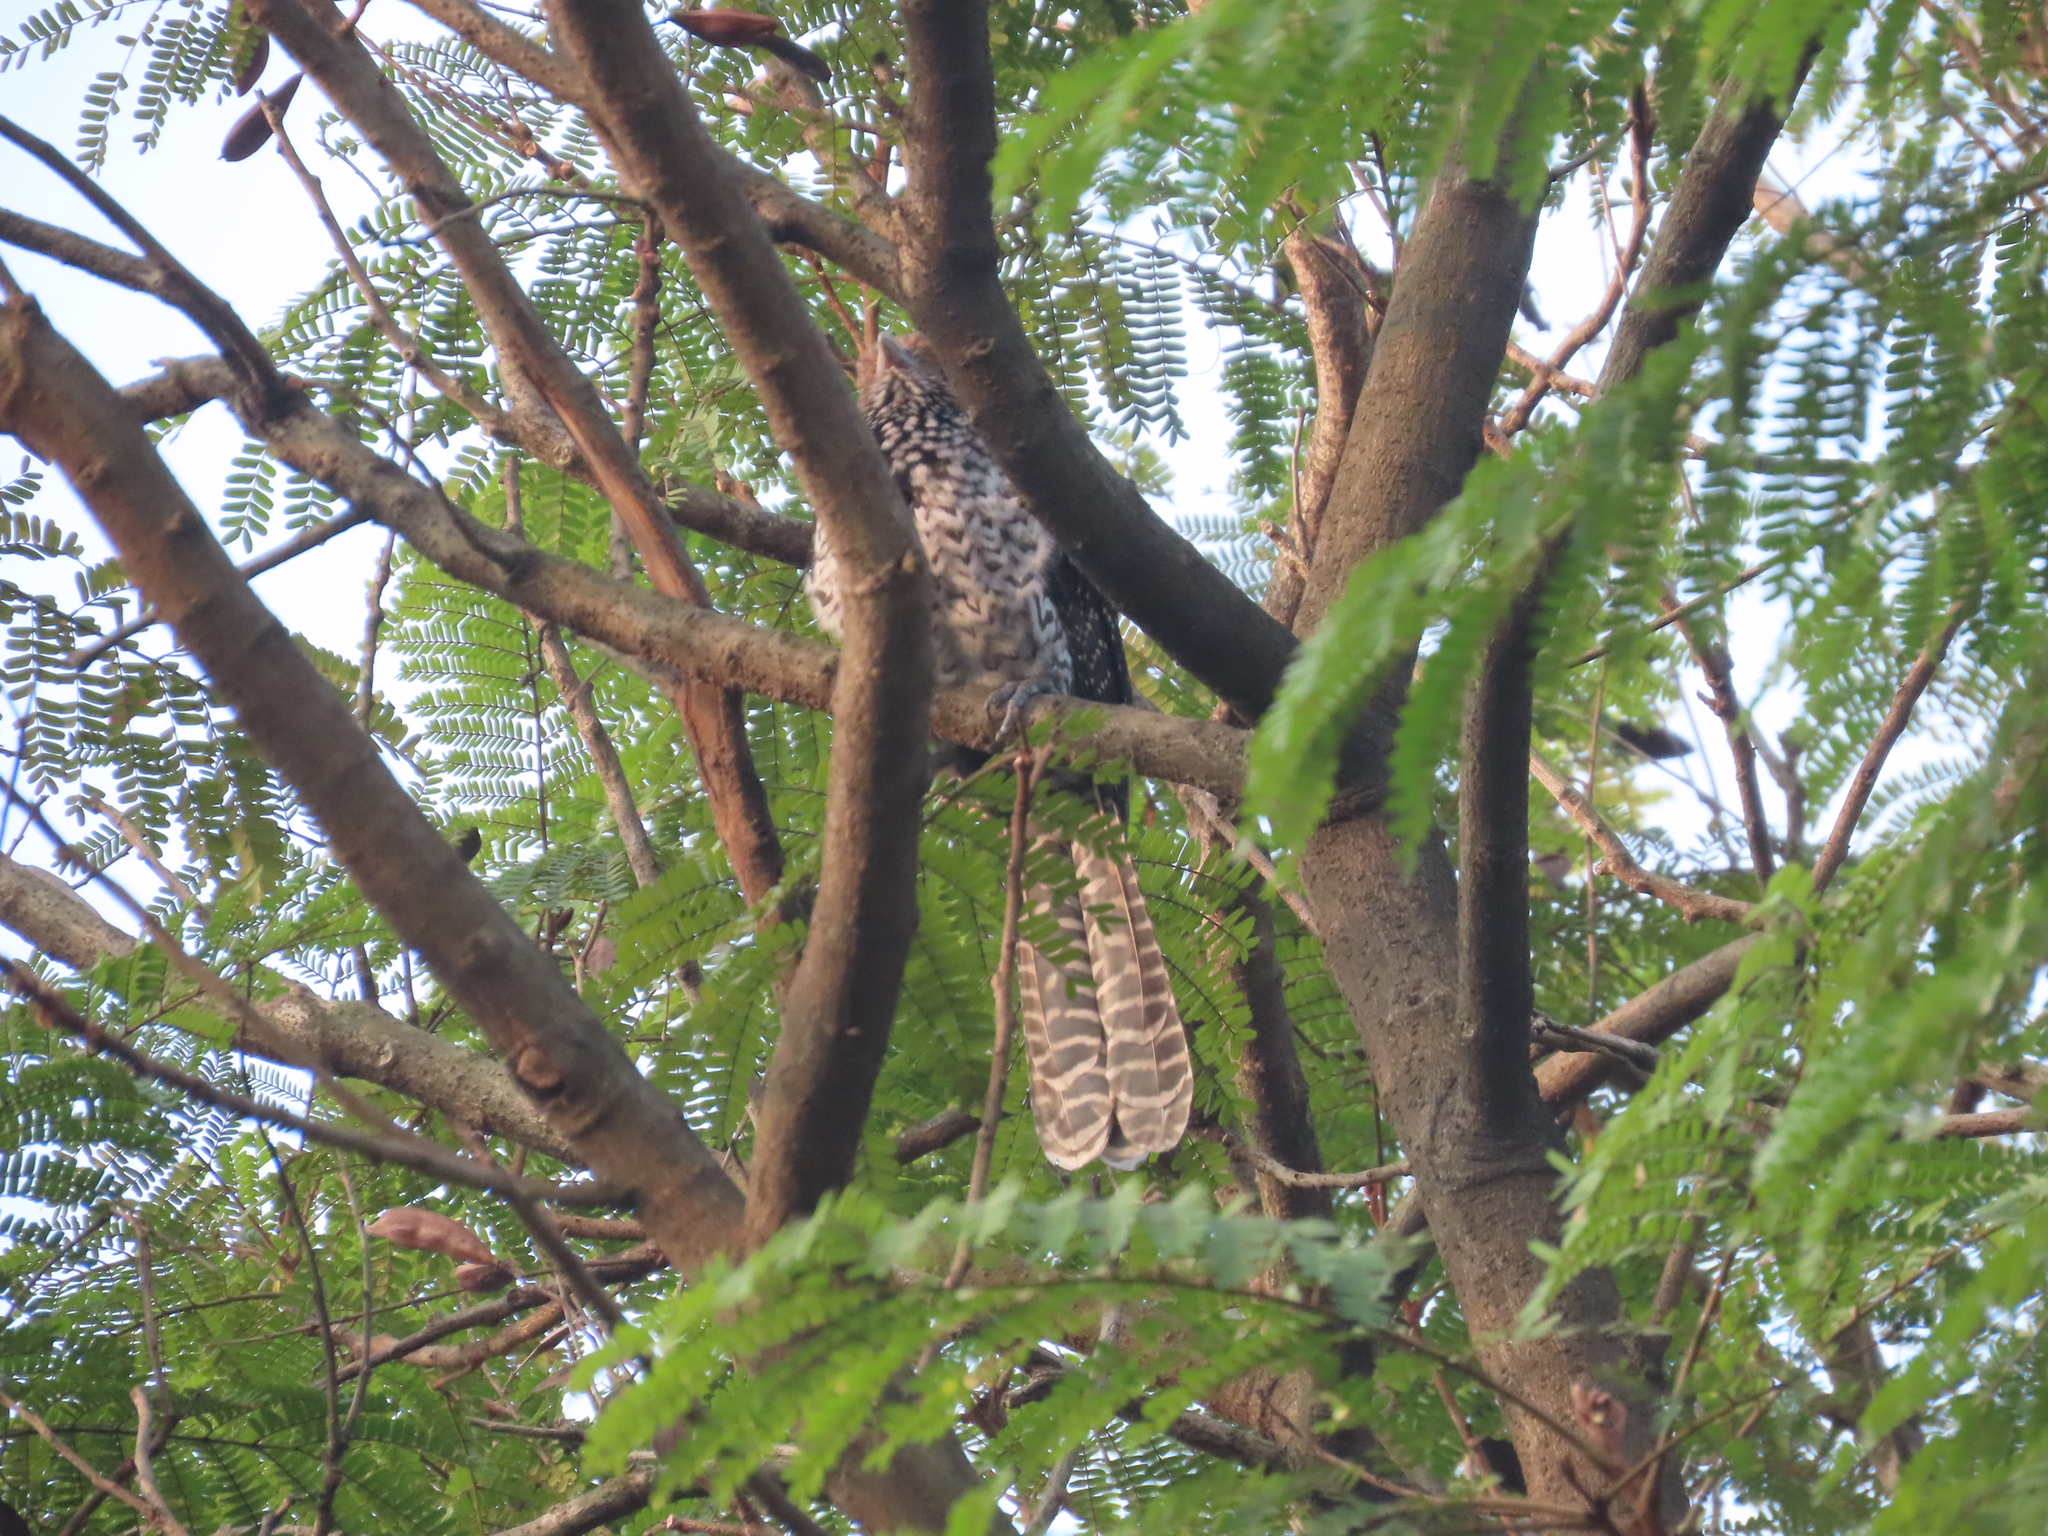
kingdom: Animalia
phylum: Chordata
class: Aves
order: Cuculiformes
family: Cuculidae
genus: Eudynamys
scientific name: Eudynamys scolopaceus
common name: Asian koel
